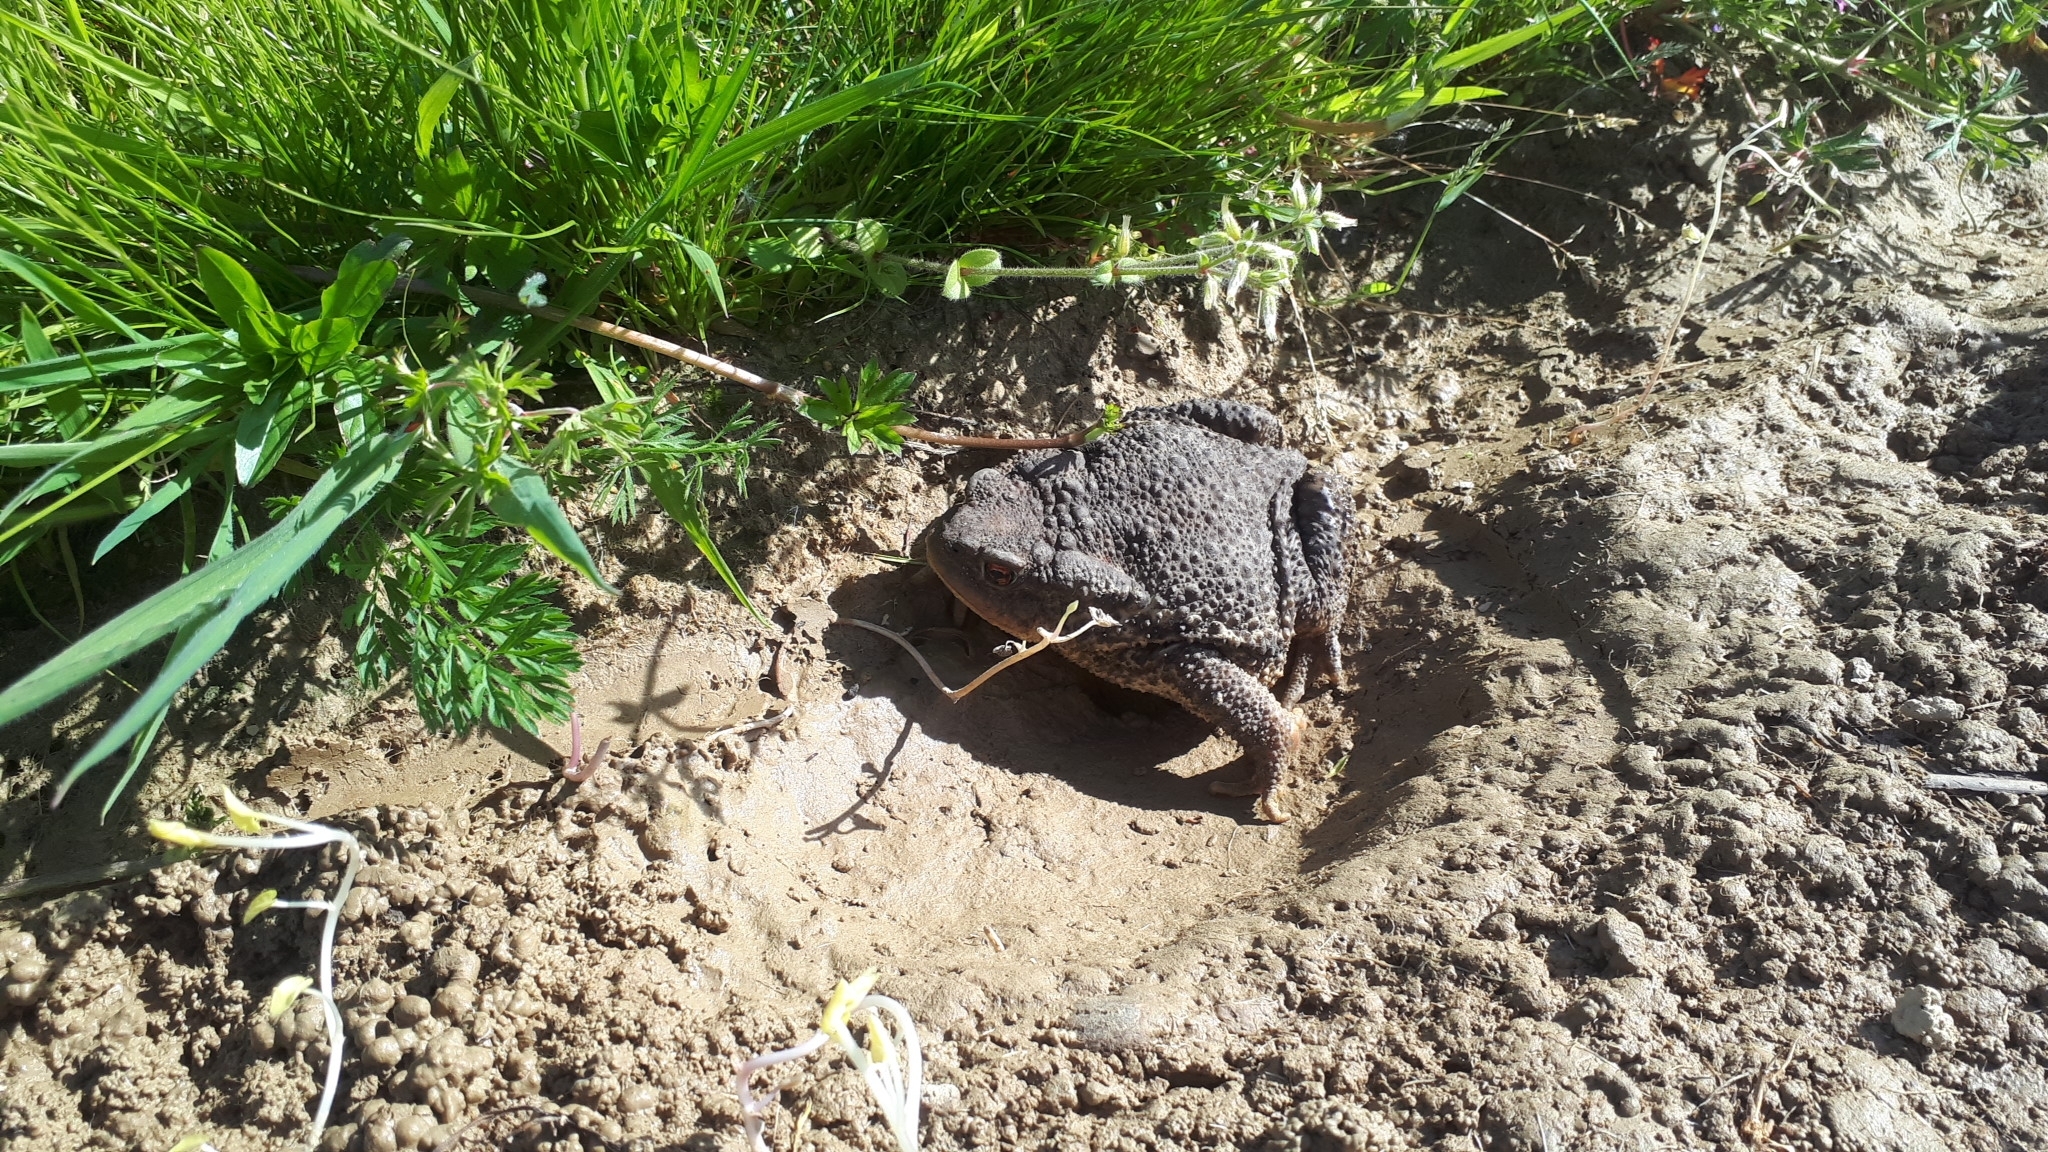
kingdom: Animalia
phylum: Chordata
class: Amphibia
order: Anura
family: Bufonidae
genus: Bufo
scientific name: Bufo spinosus
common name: Western common toad
